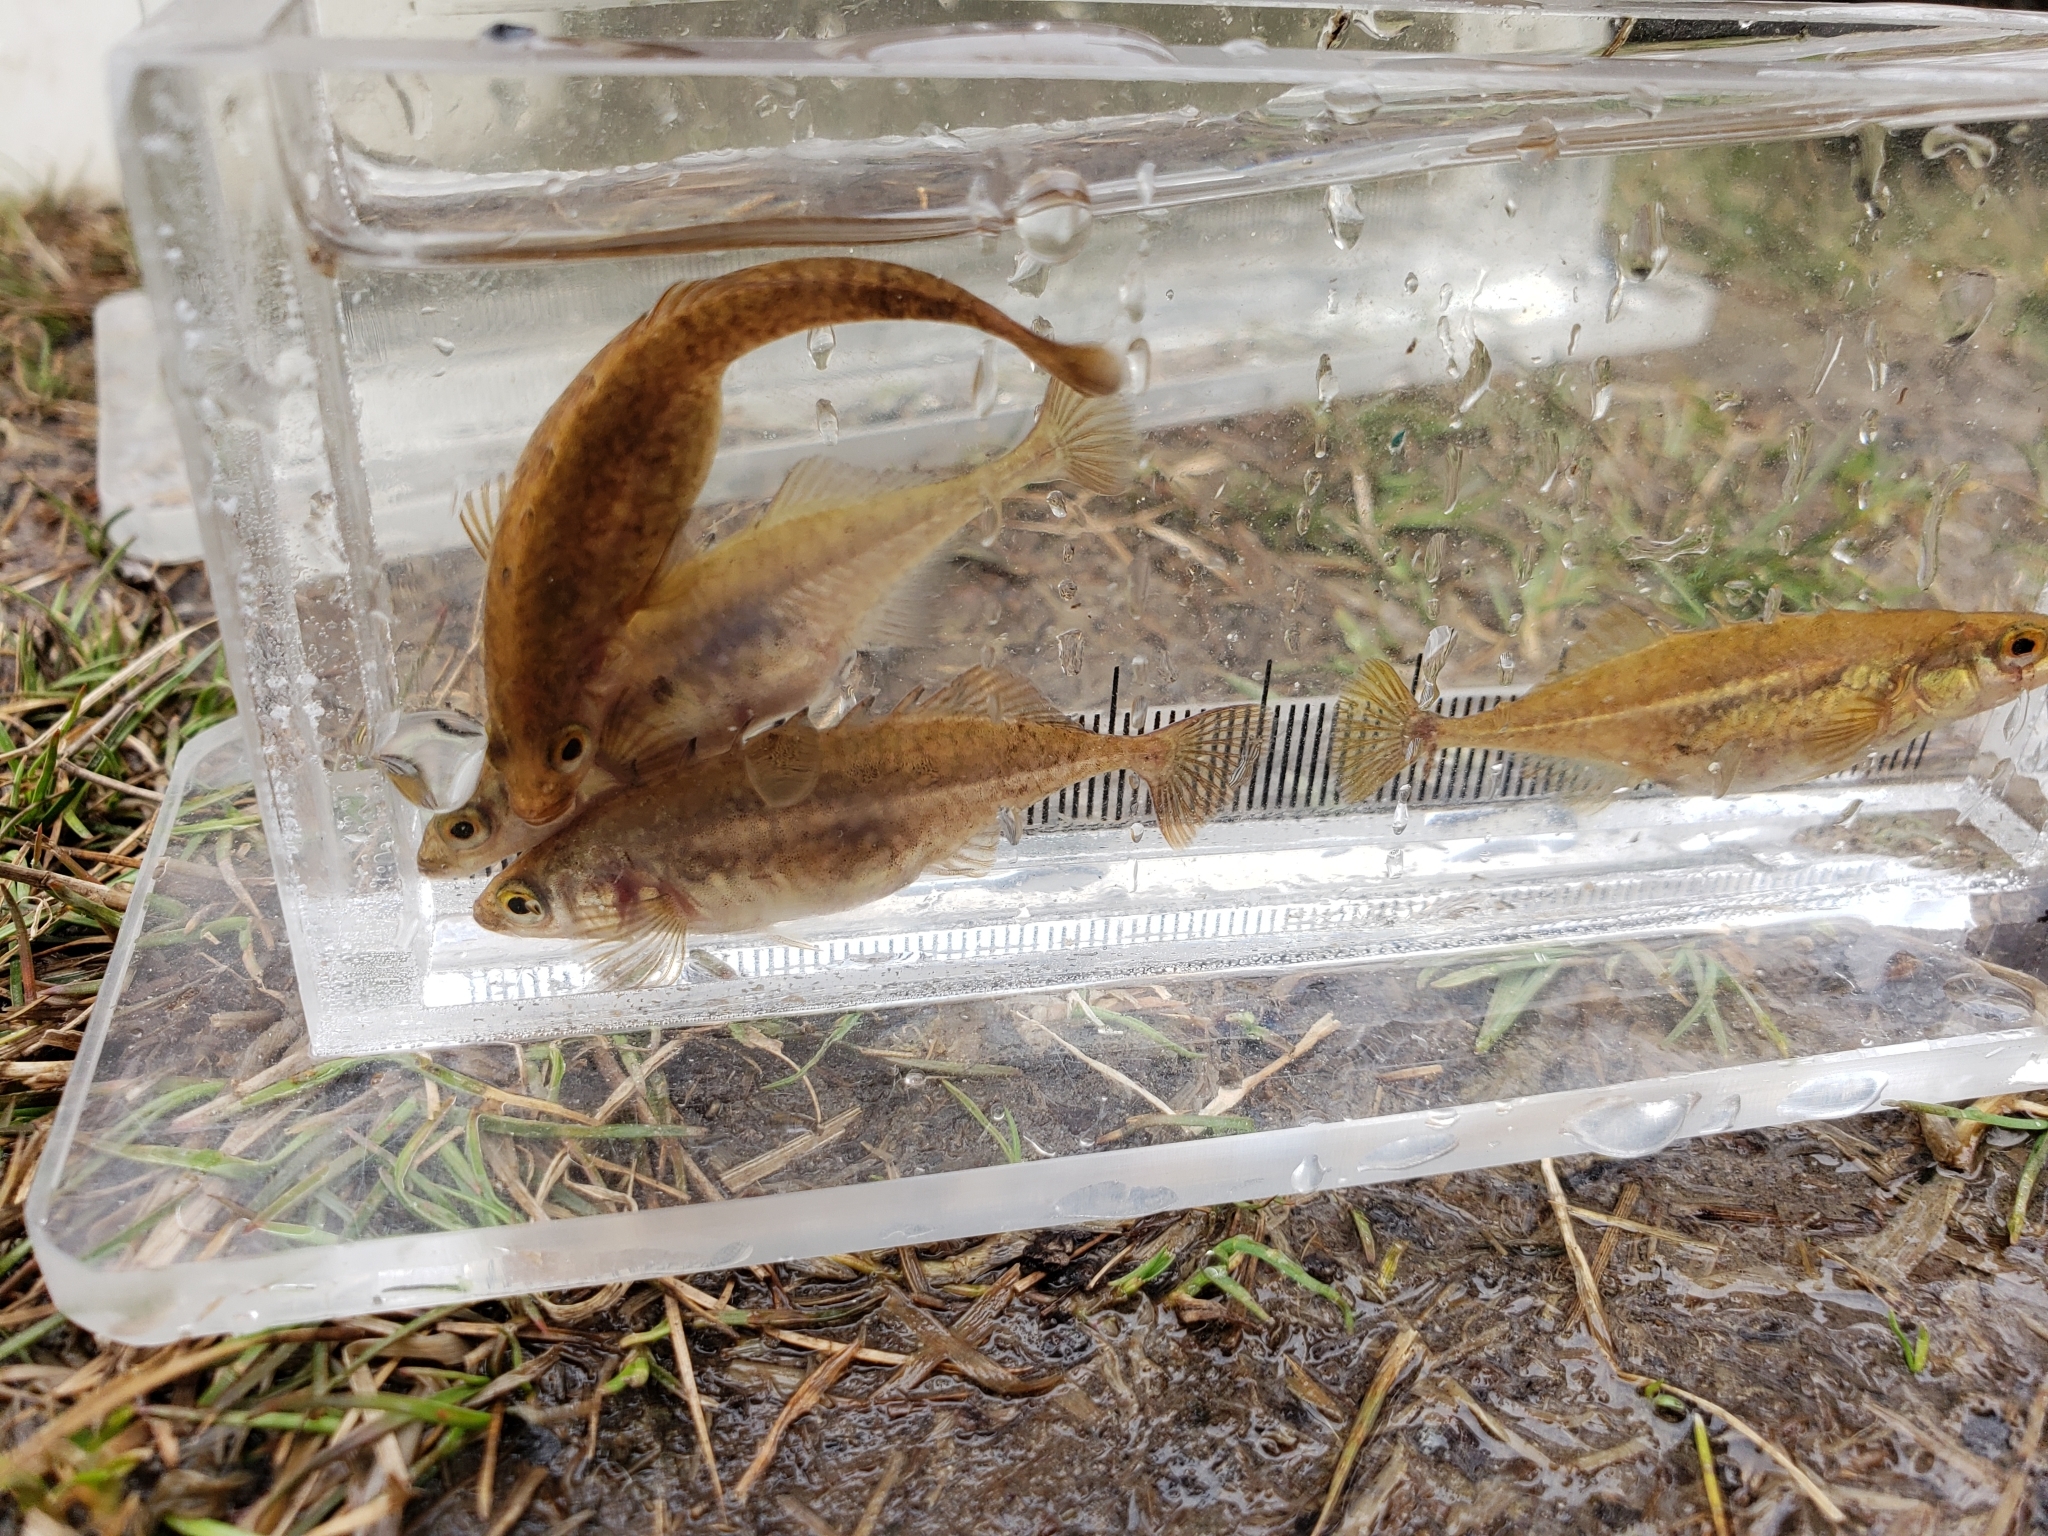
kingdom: Animalia
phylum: Chordata
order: Gasterosteiformes
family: Gasterosteidae
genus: Culaea
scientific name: Culaea inconstans
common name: Brook stickleback
